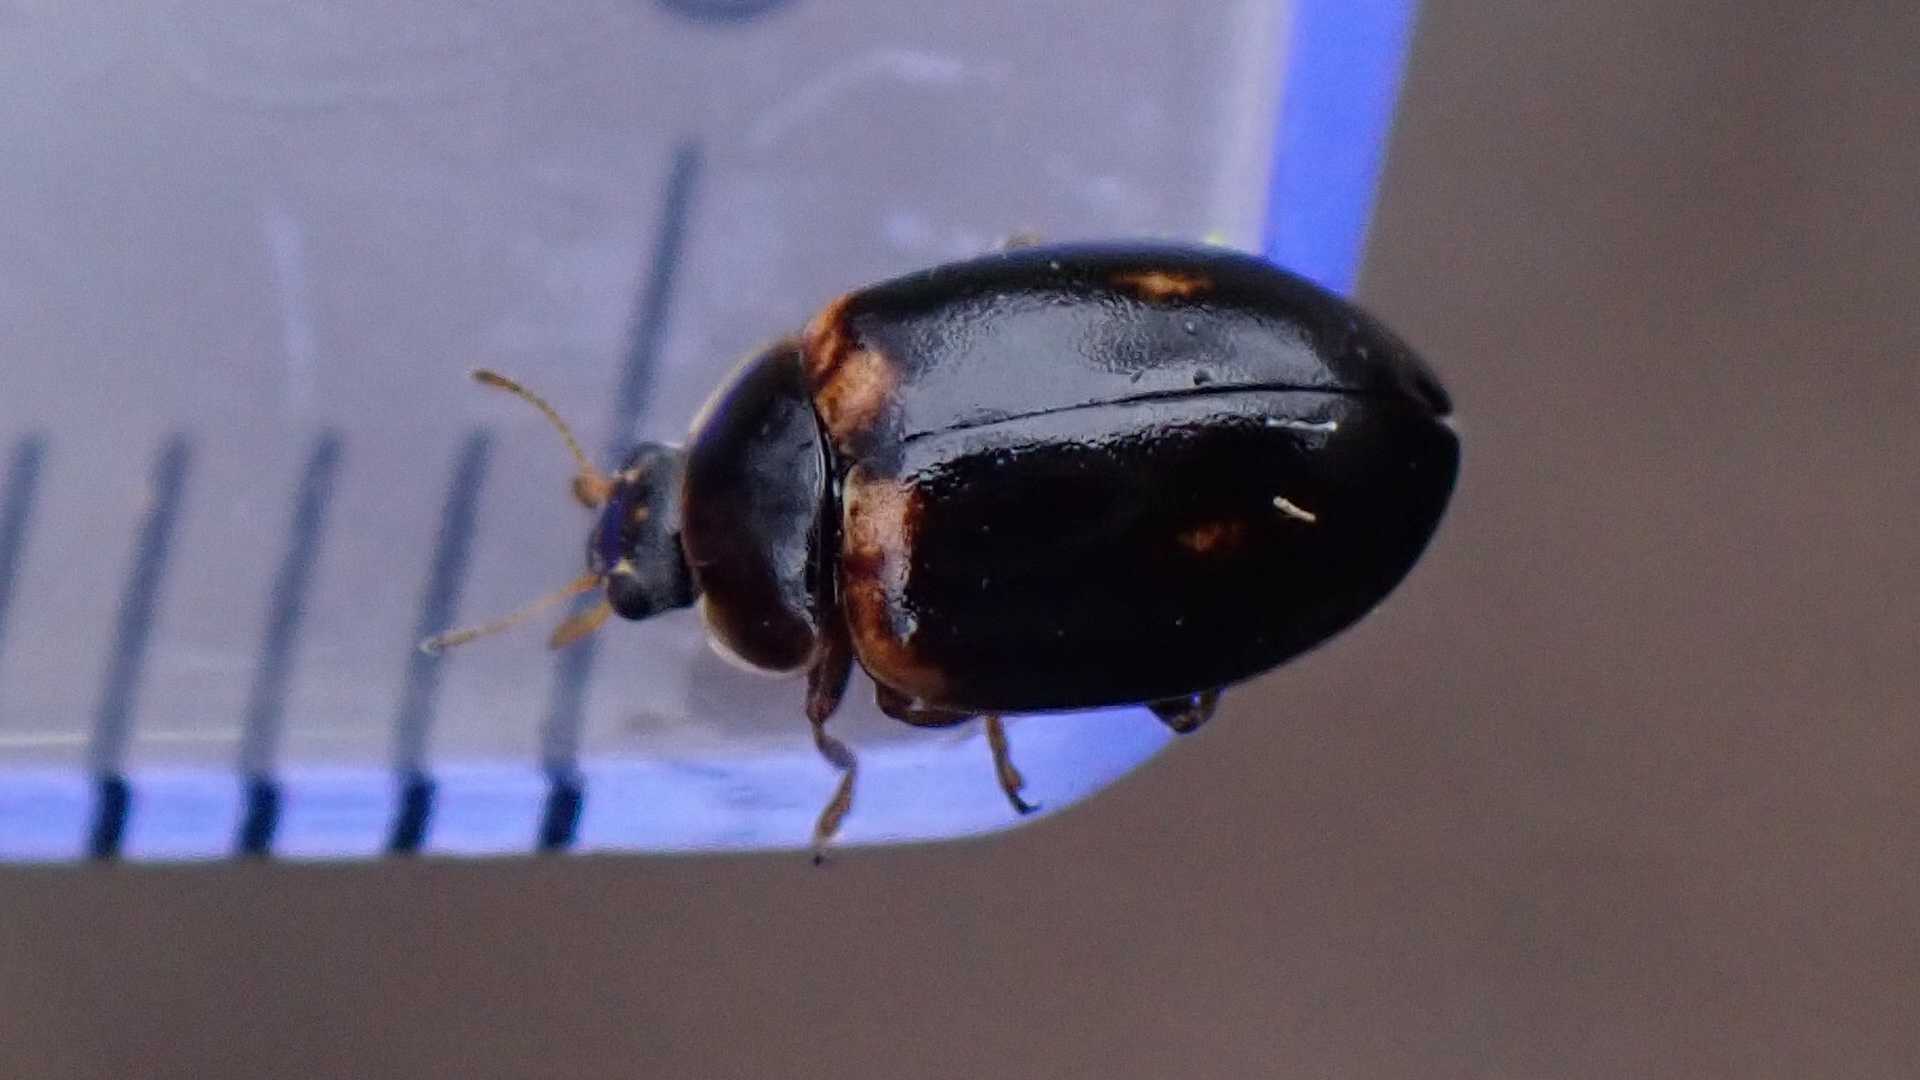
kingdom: Animalia
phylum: Arthropoda
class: Insecta
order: Coleoptera
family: Coccinellidae
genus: Aphidecta
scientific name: Aphidecta obliterata
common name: Larch ladybird
